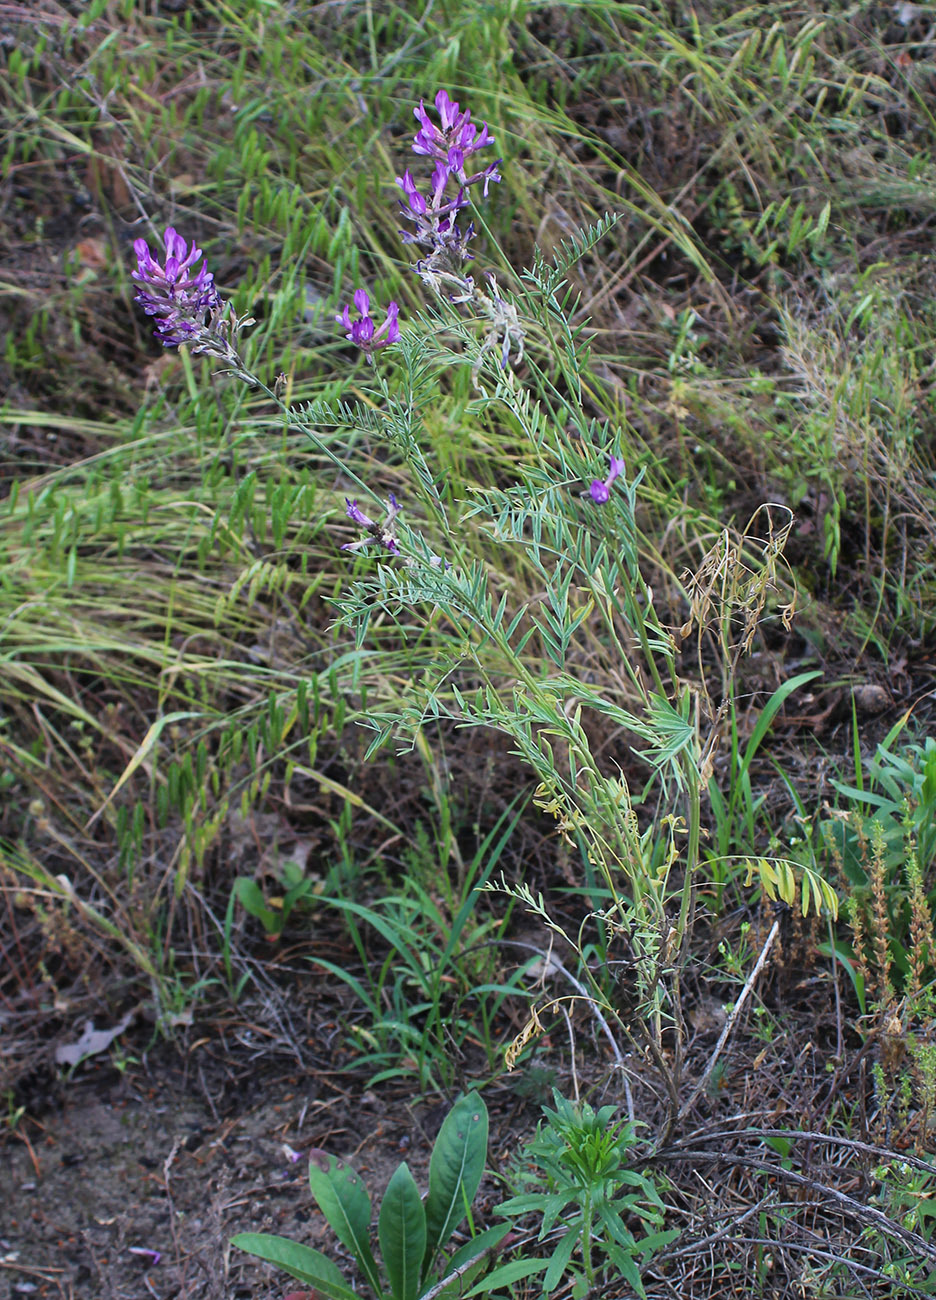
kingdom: Plantae
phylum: Tracheophyta
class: Magnoliopsida
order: Fabales
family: Fabaceae
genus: Astragalus
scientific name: Astragalus varius
